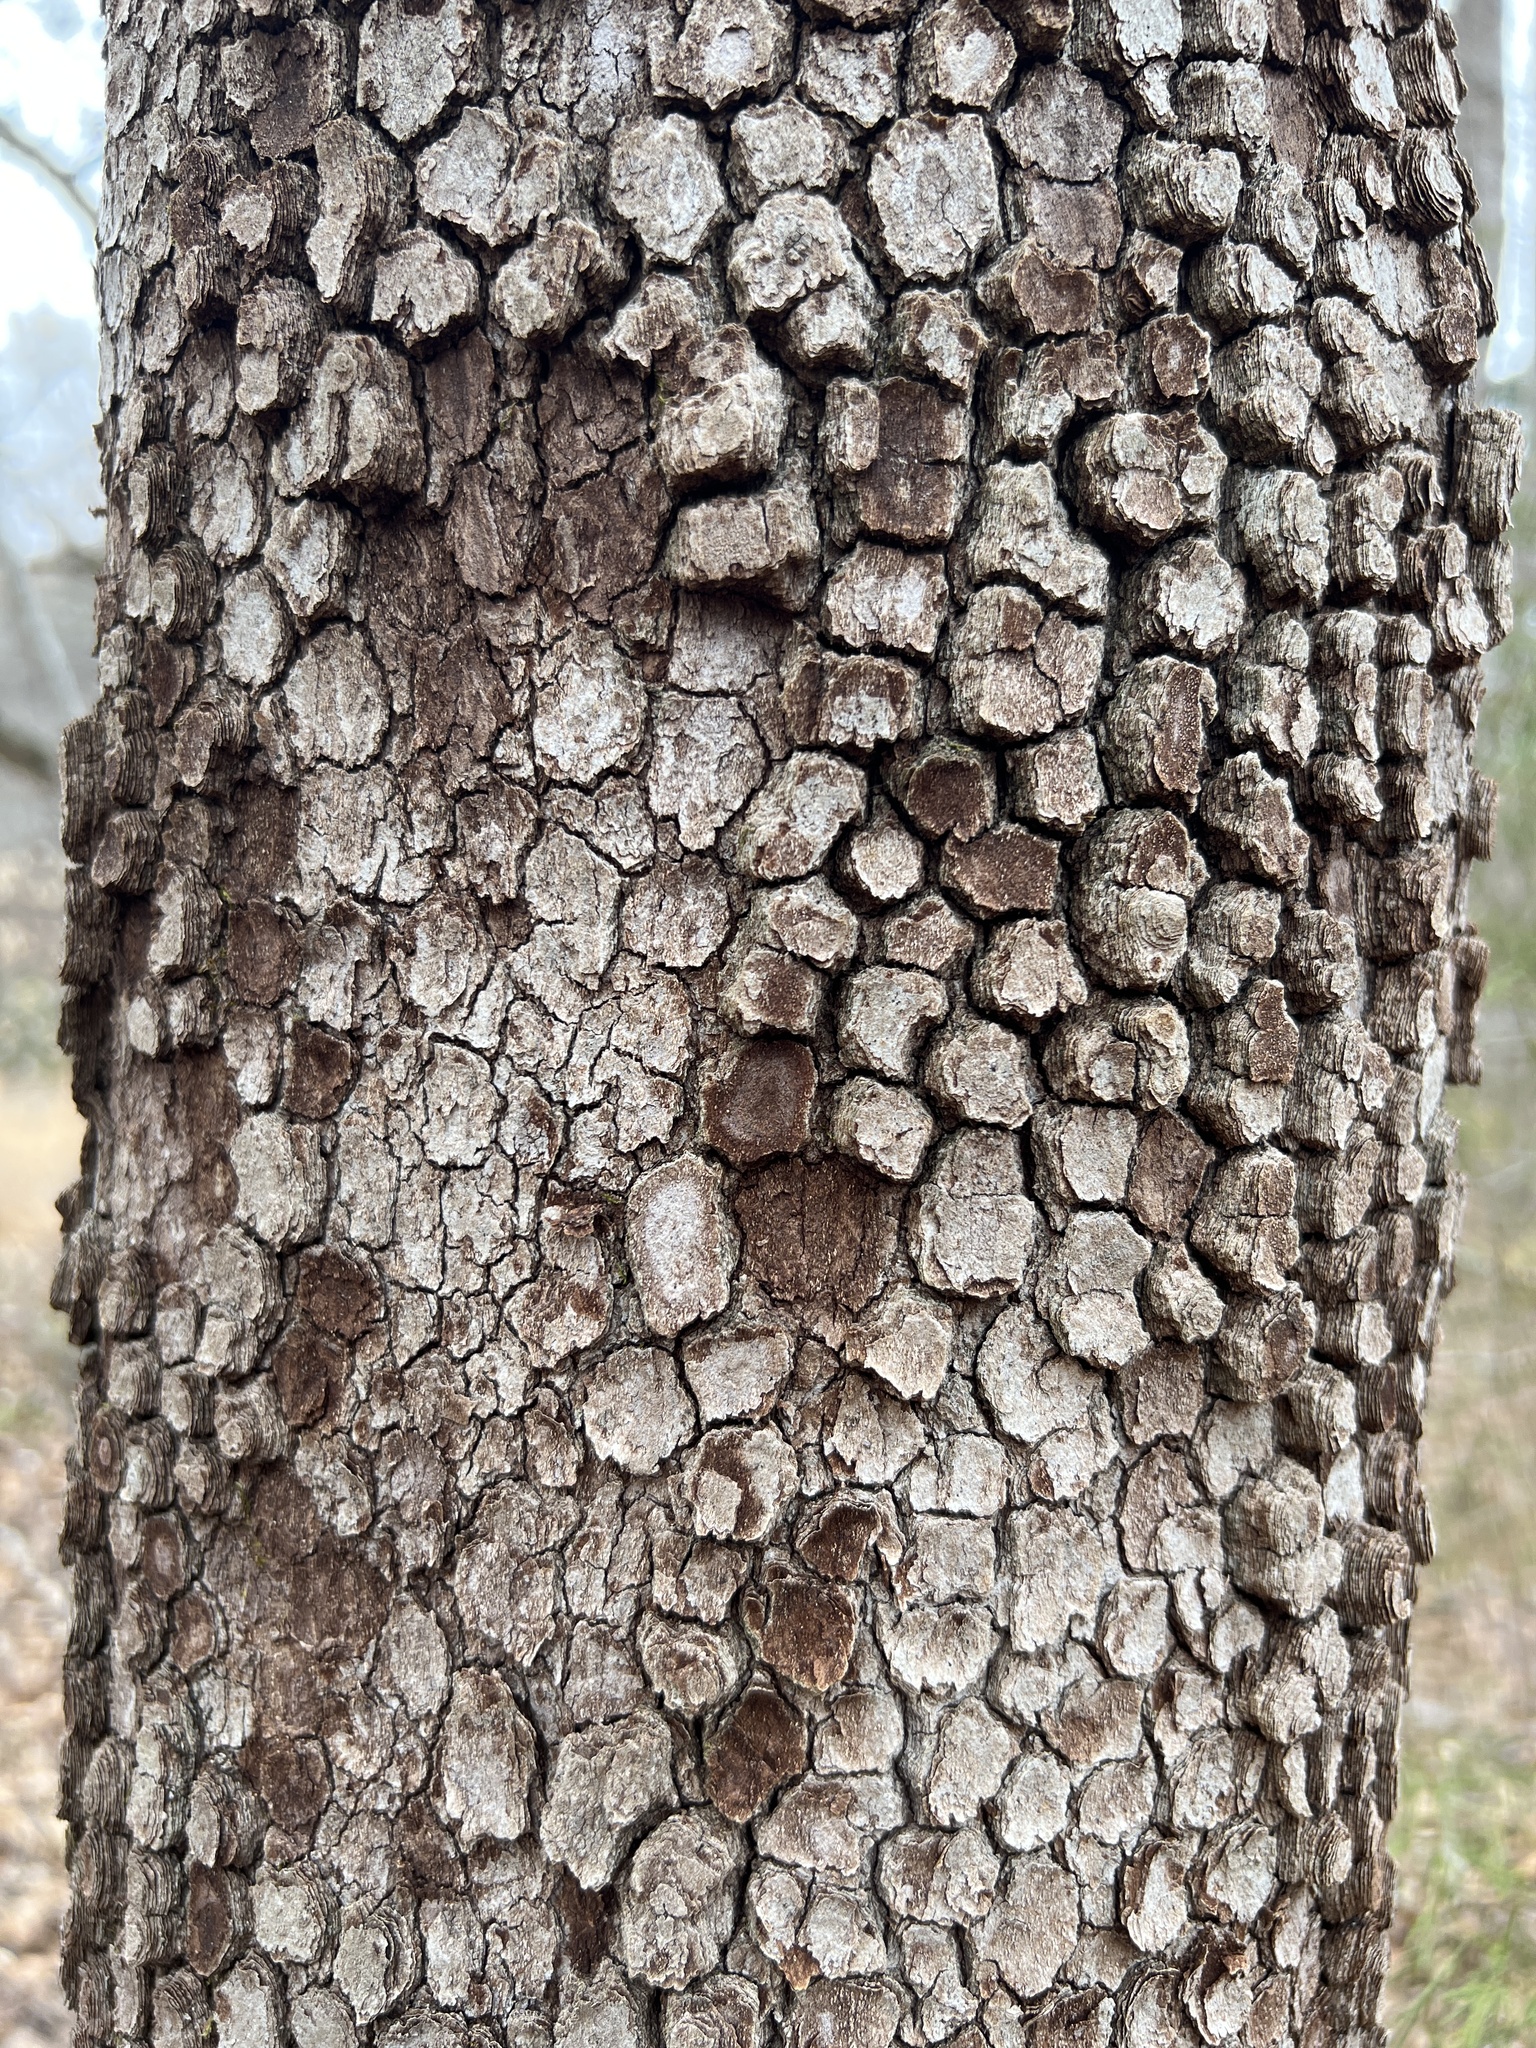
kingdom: Plantae
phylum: Tracheophyta
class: Magnoliopsida
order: Cornales
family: Cornaceae
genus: Cornus
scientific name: Cornus florida
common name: Flowering dogwood
